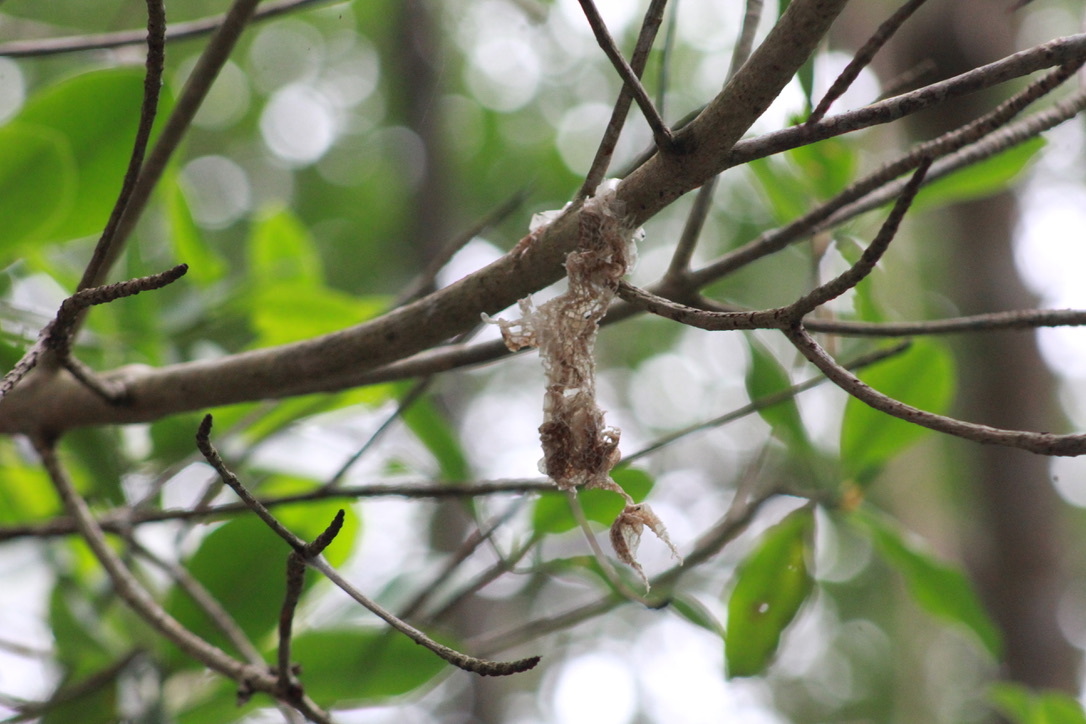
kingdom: Animalia
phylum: Chordata
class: Squamata
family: Boidae
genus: Corallus
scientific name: Corallus ruschenbergerii
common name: Dormilona
